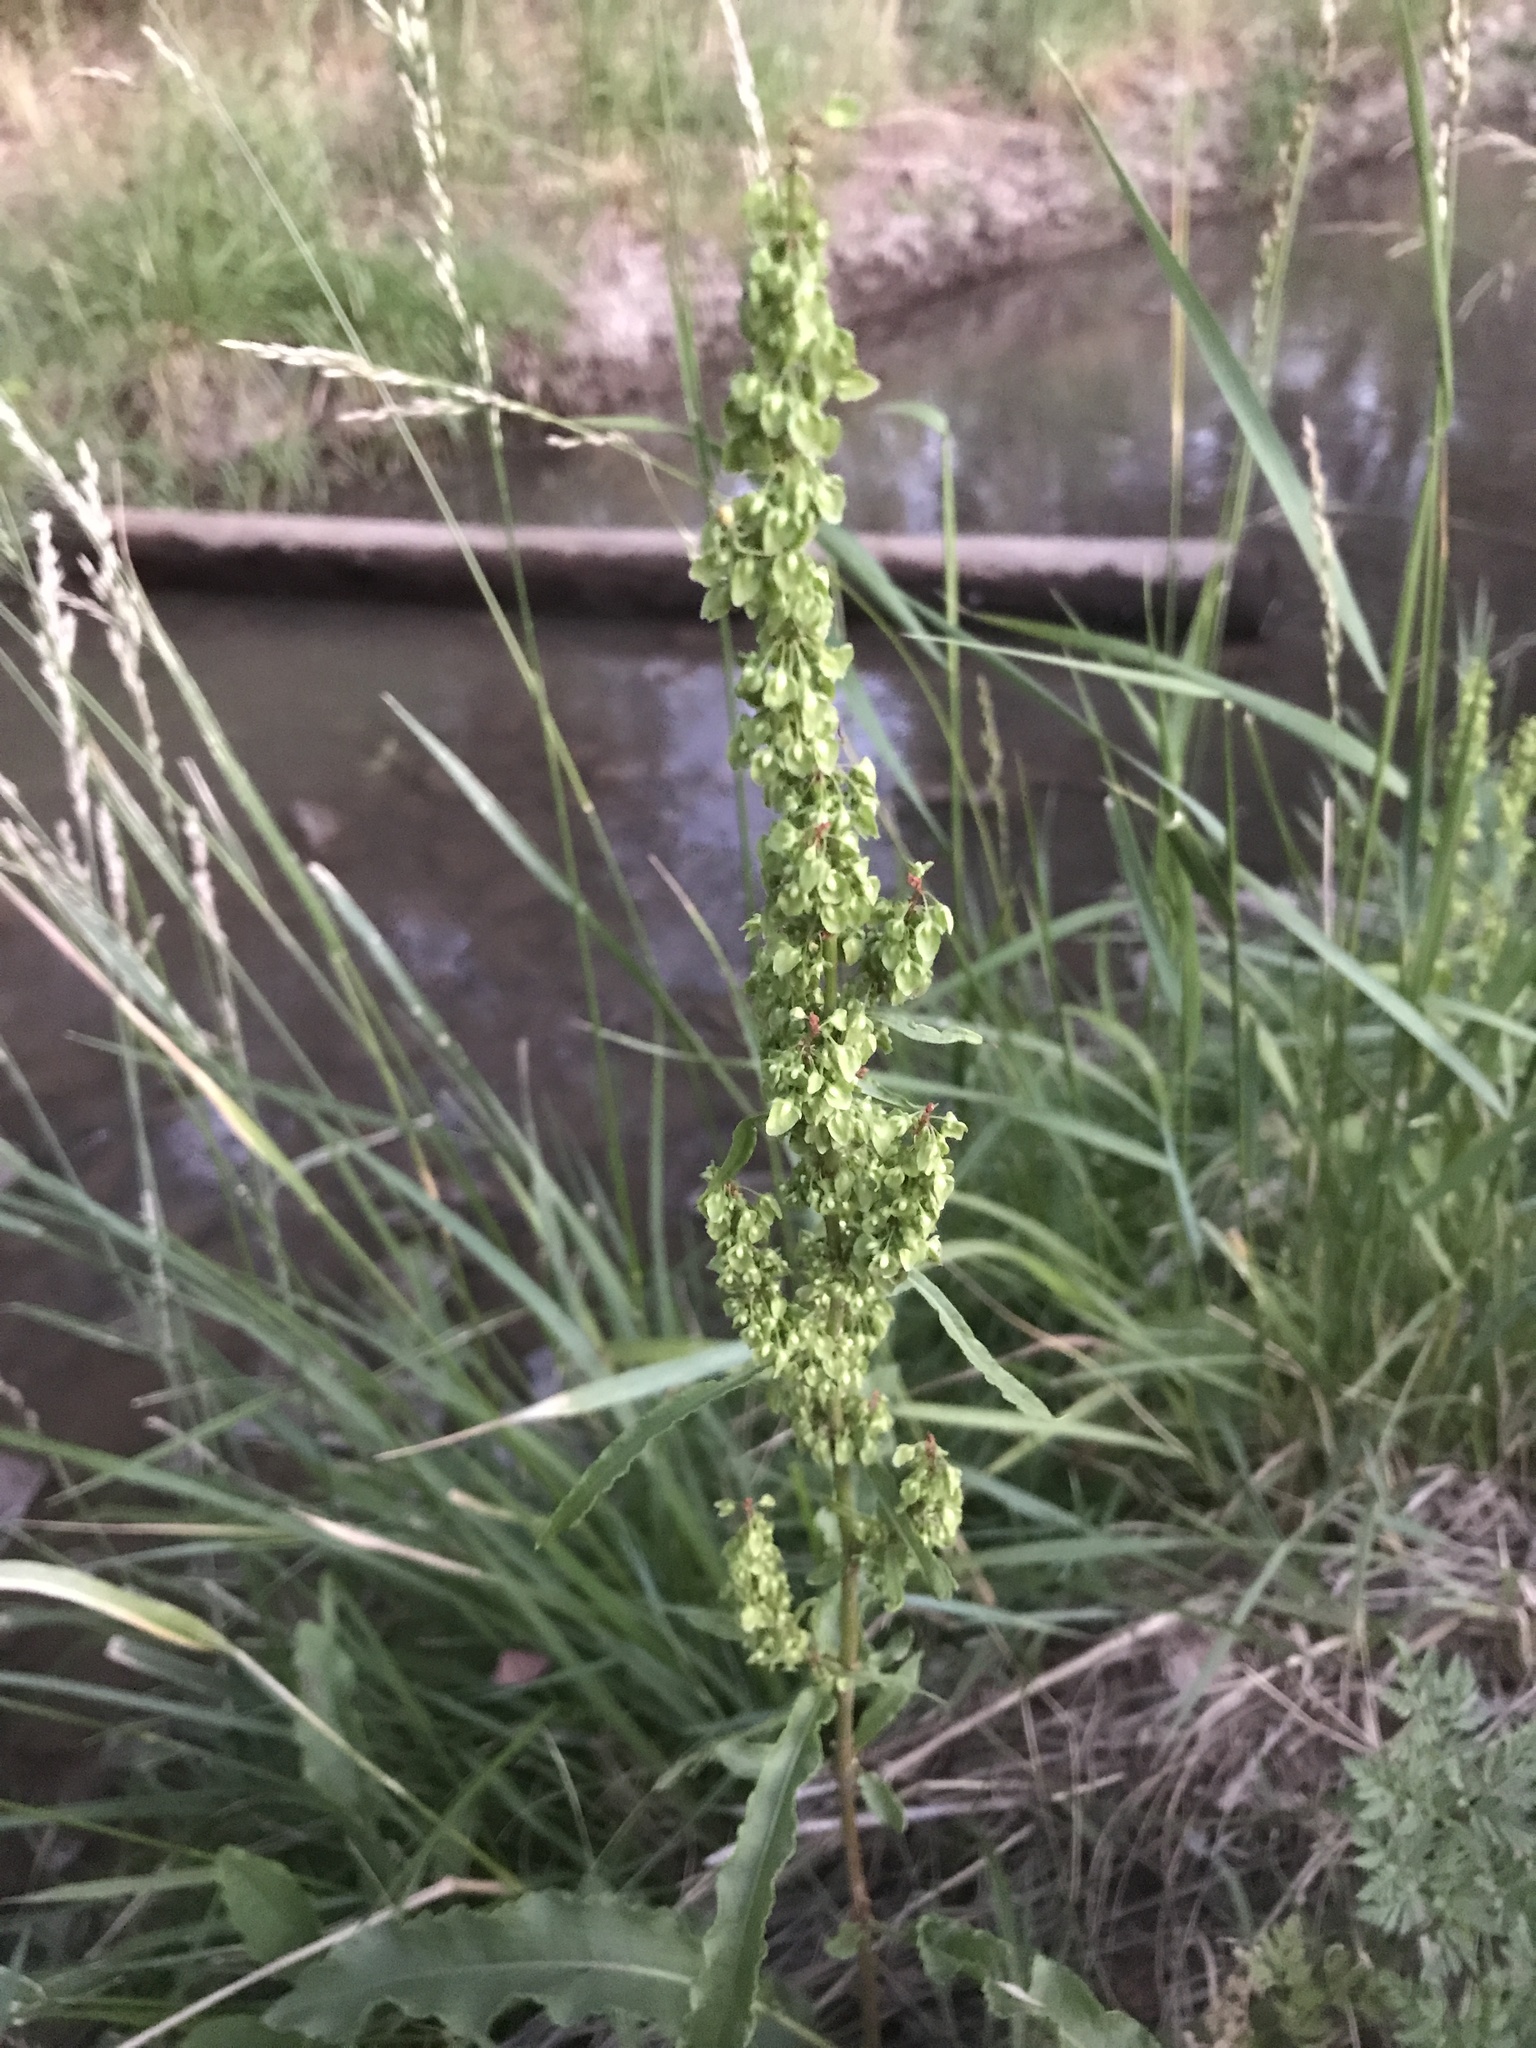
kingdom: Plantae
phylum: Tracheophyta
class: Magnoliopsida
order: Caryophyllales
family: Polygonaceae
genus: Rumex
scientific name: Rumex crispus
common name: Curled dock
